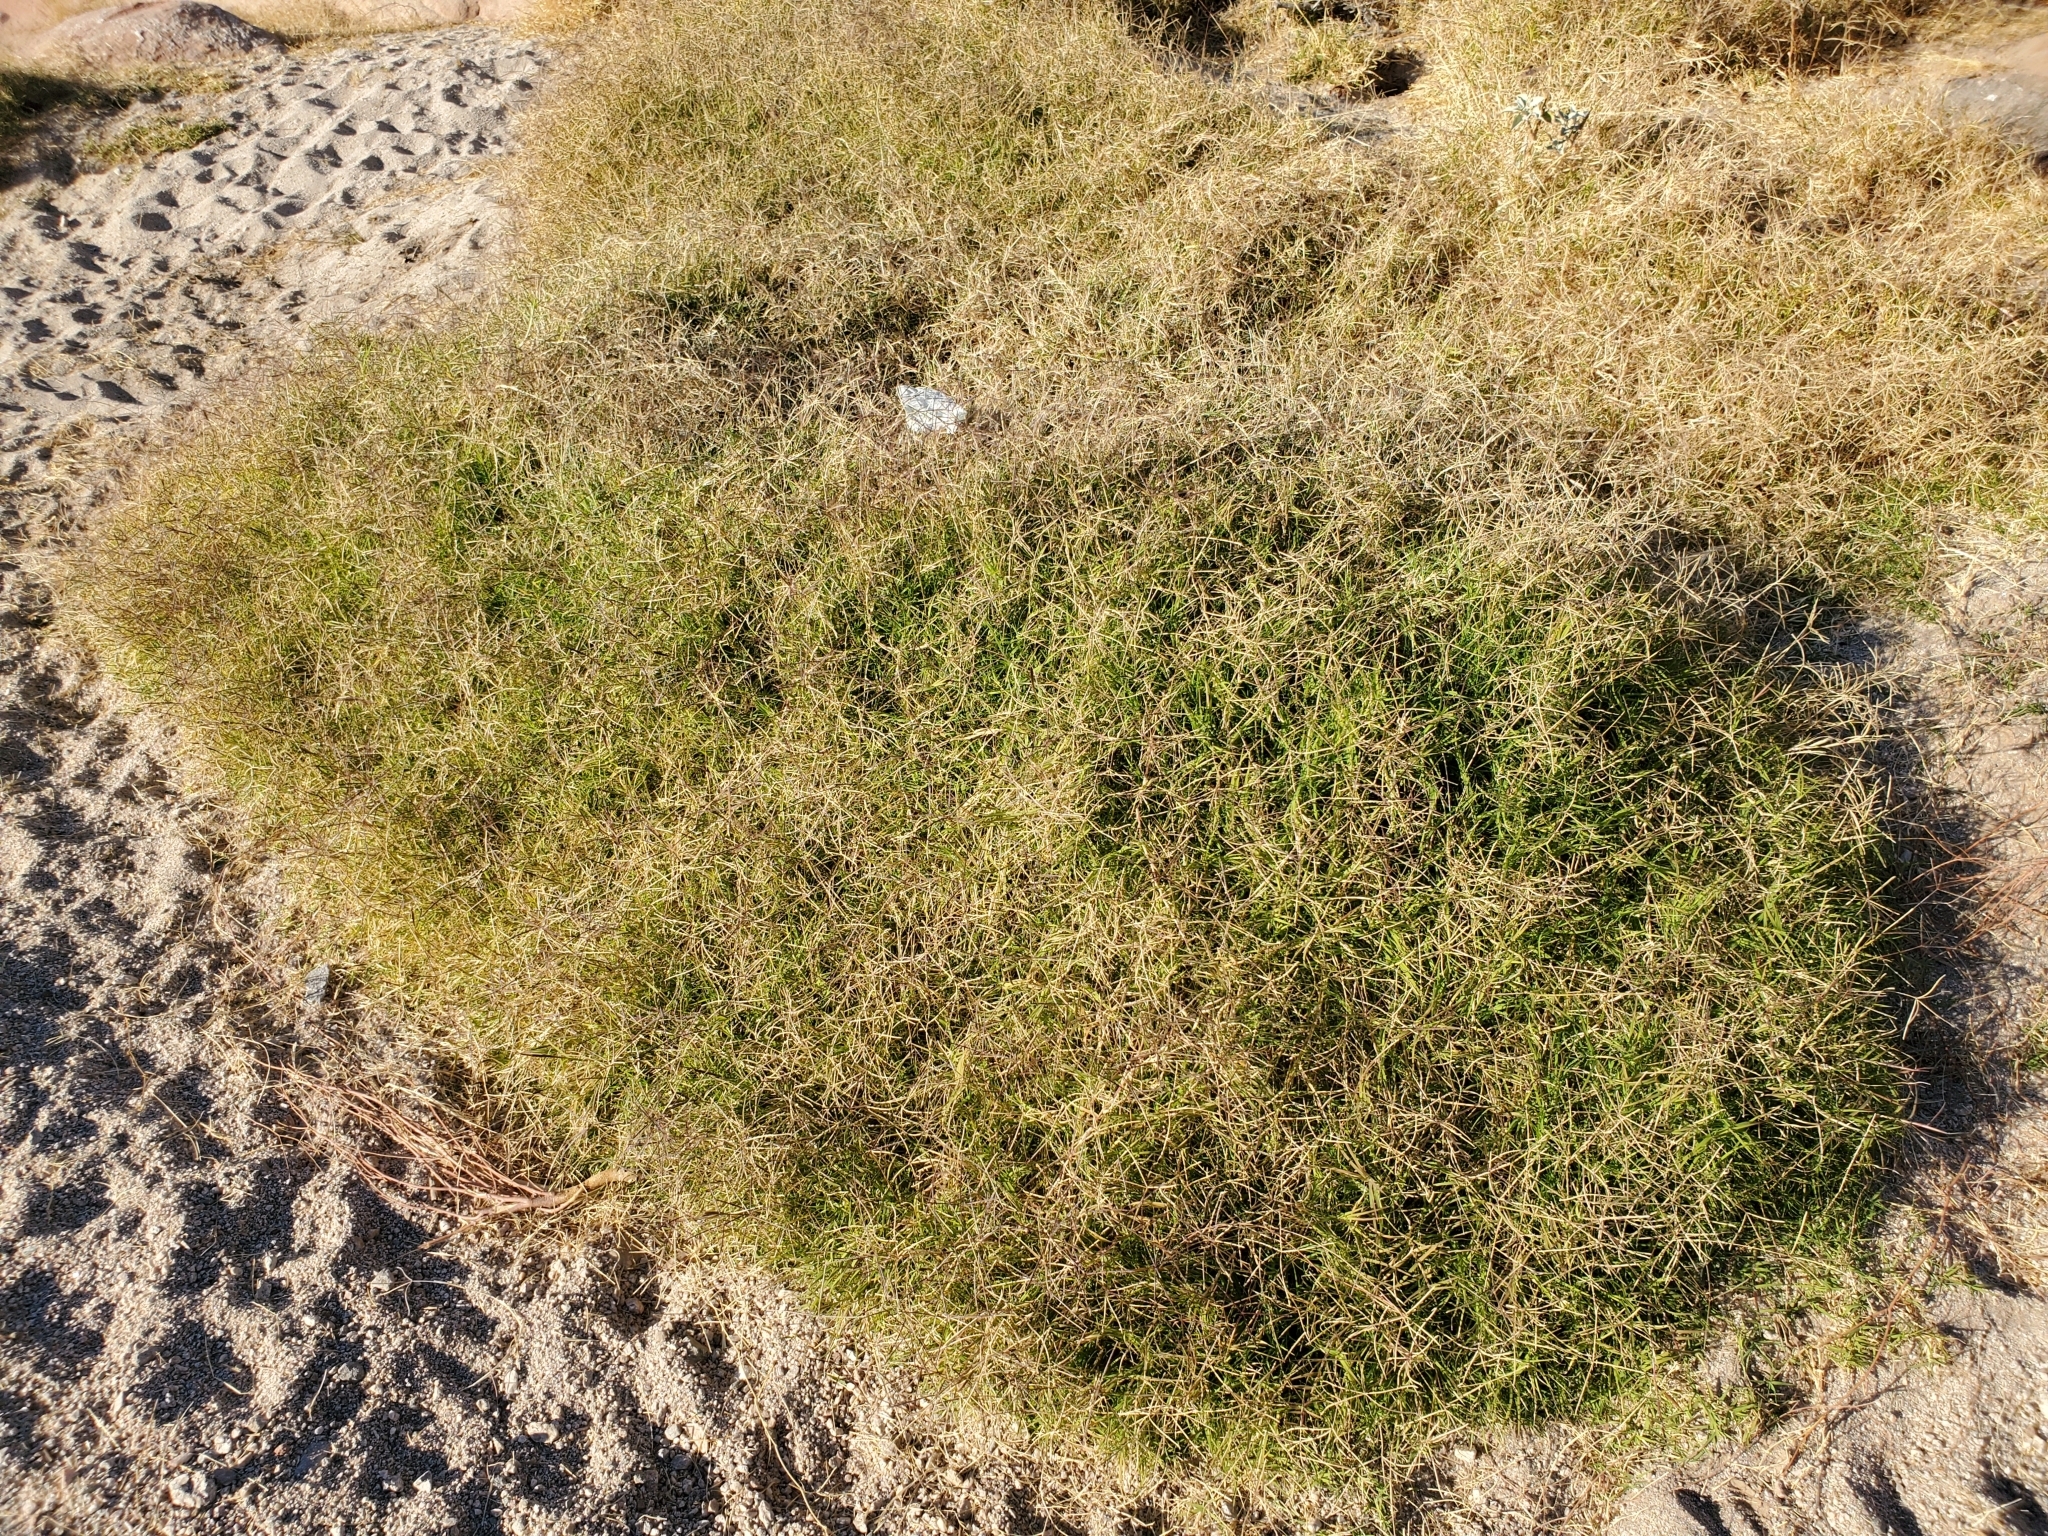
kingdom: Plantae
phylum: Tracheophyta
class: Liliopsida
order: Poales
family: Poaceae
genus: Cynodon
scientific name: Cynodon dactylon
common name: Bermuda grass
